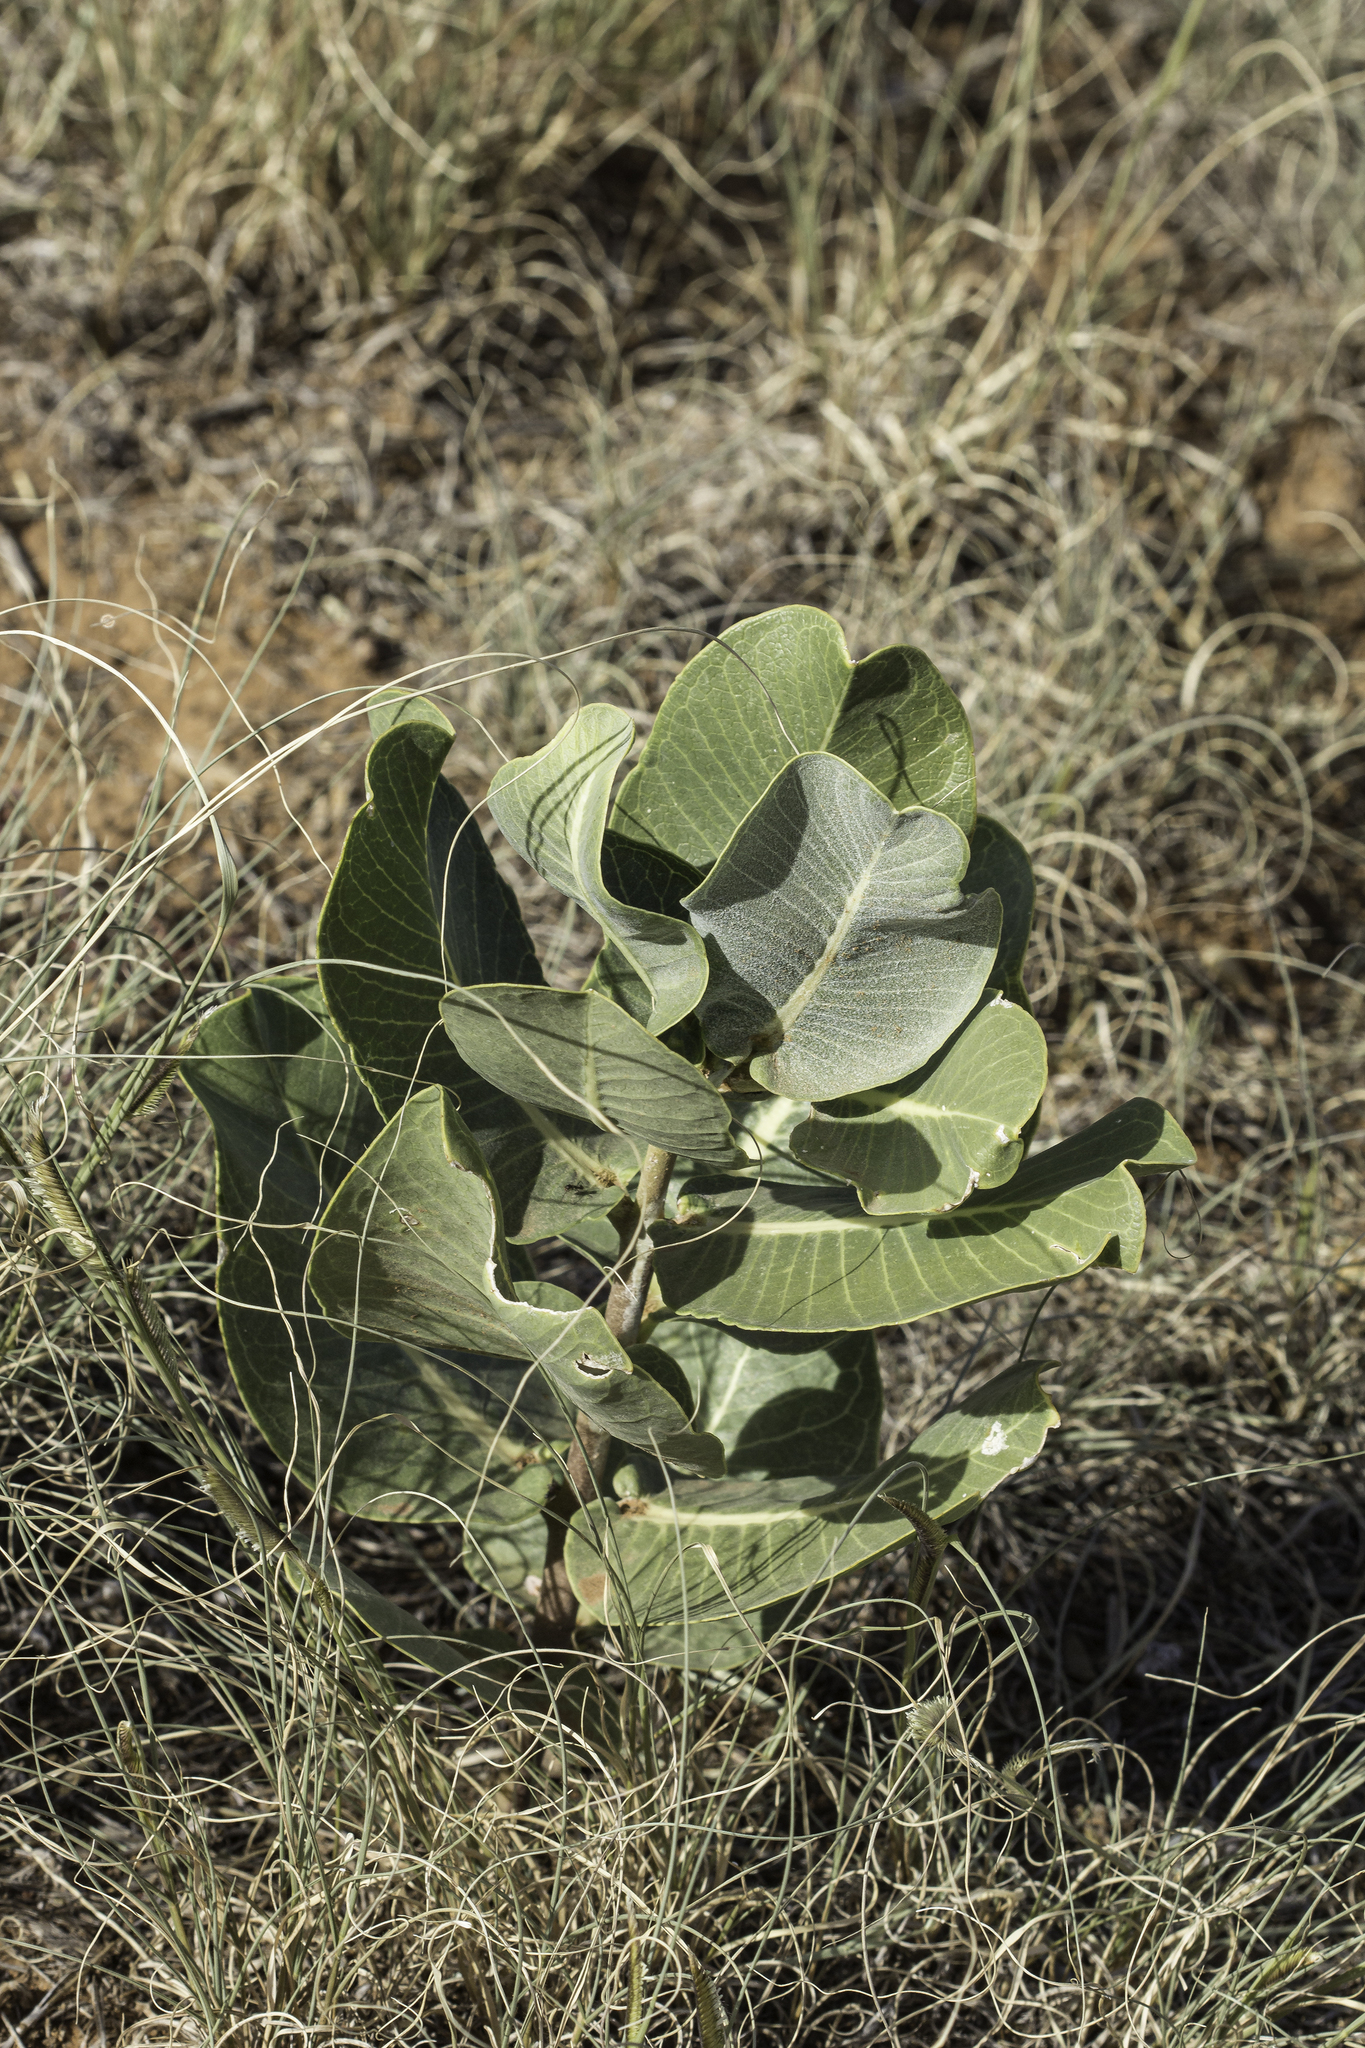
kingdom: Plantae
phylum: Tracheophyta
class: Magnoliopsida
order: Gentianales
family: Apocynaceae
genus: Asclepias
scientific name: Asclepias latifolia
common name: Broadleaf milkweed
